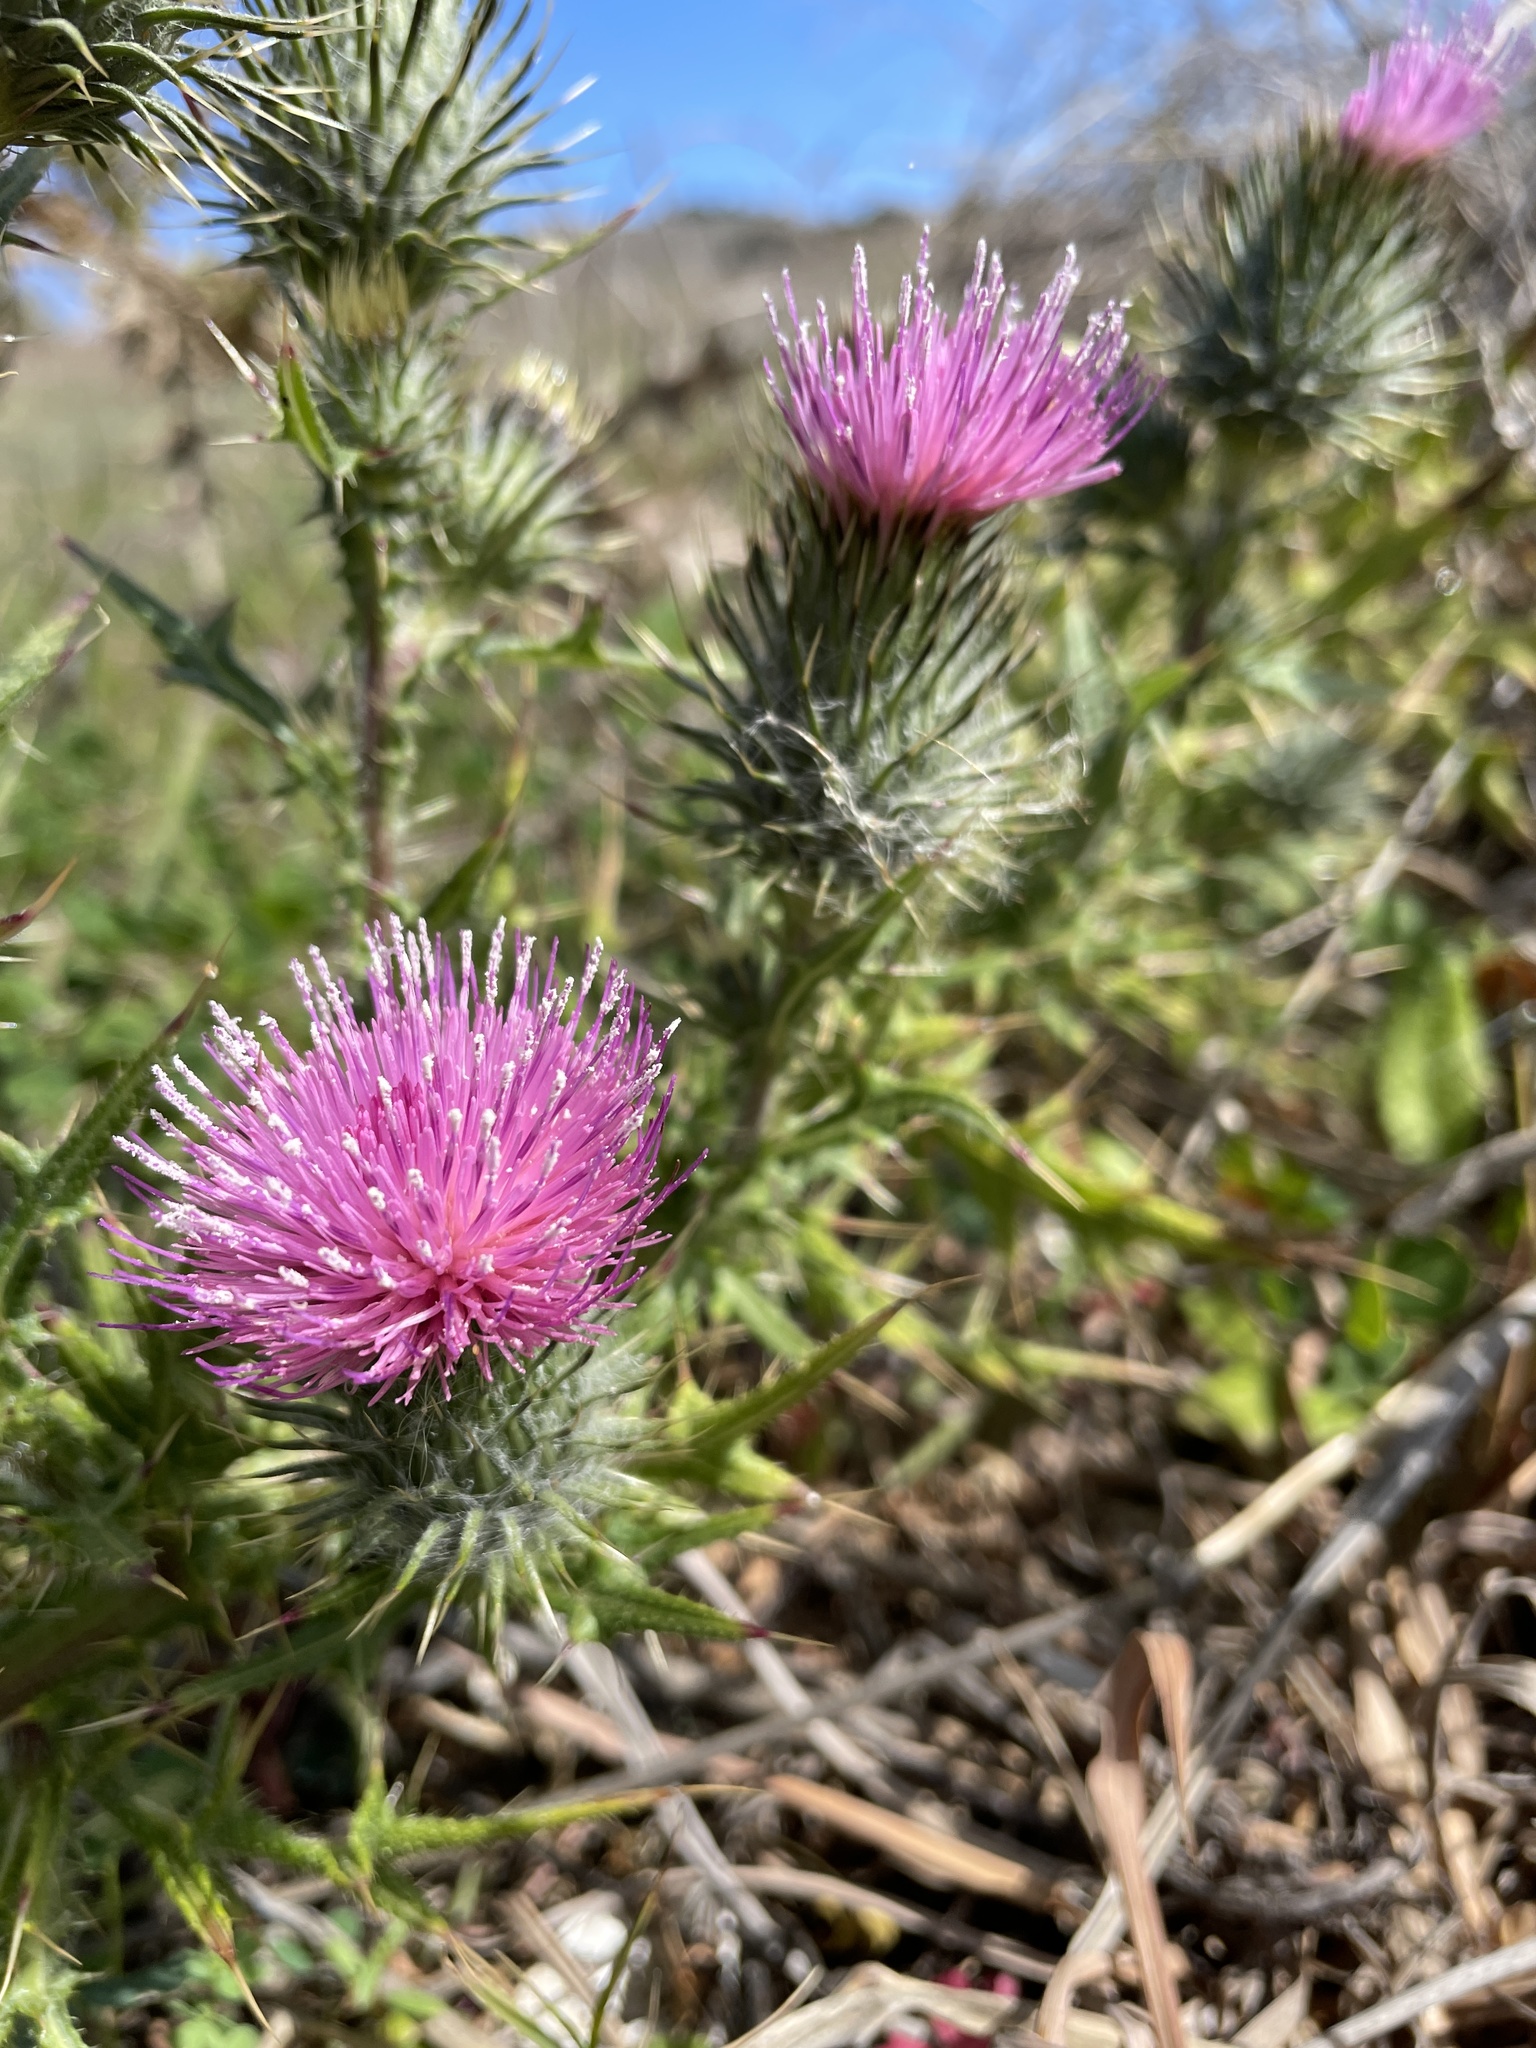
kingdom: Plantae
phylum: Tracheophyta
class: Magnoliopsida
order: Asterales
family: Asteraceae
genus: Cirsium
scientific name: Cirsium vulgare
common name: Bull thistle
